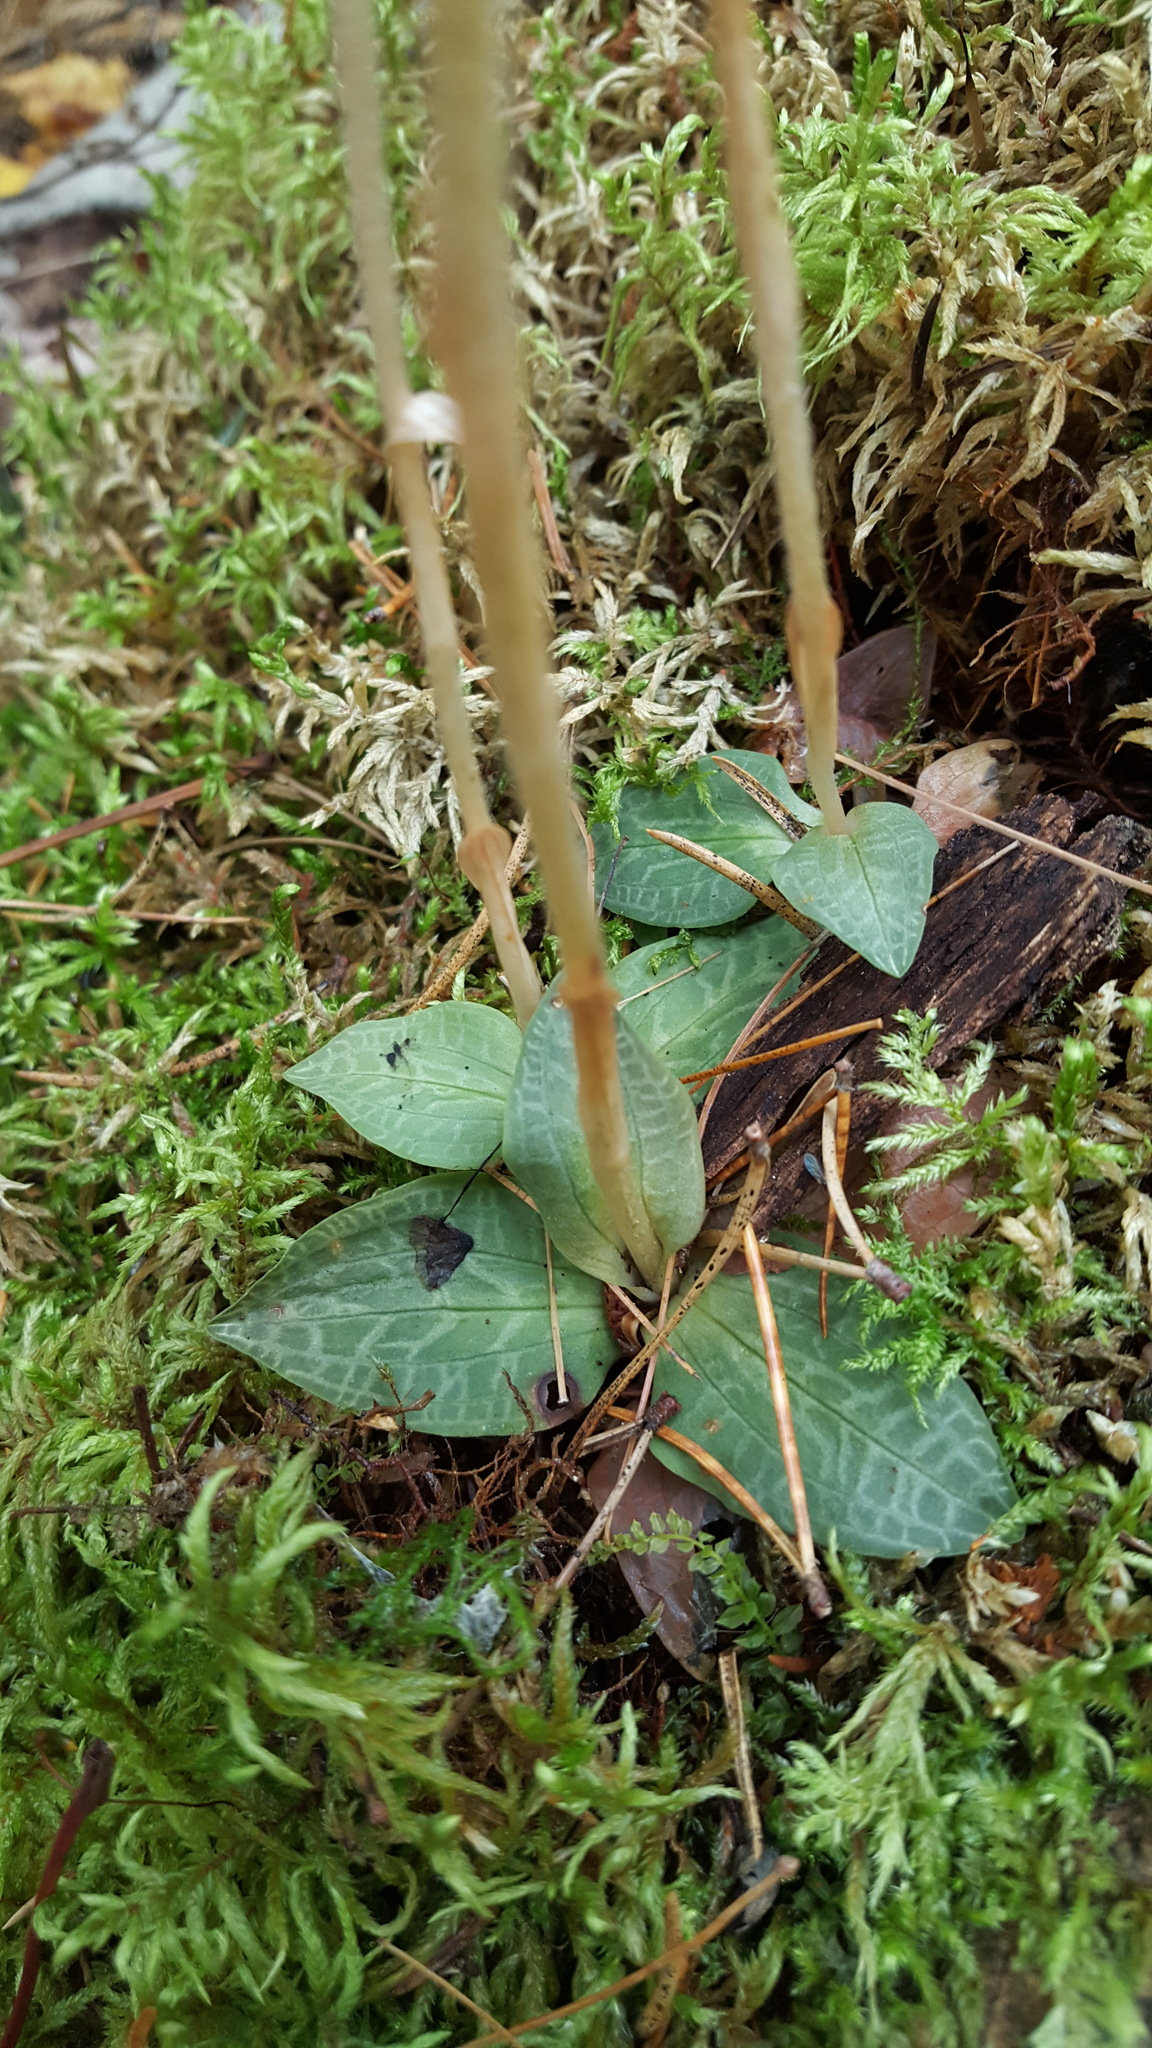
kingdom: Plantae
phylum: Tracheophyta
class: Liliopsida
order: Asparagales
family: Orchidaceae
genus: Goodyera
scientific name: Goodyera tesselata
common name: Checkered rattlesnake-plantain
